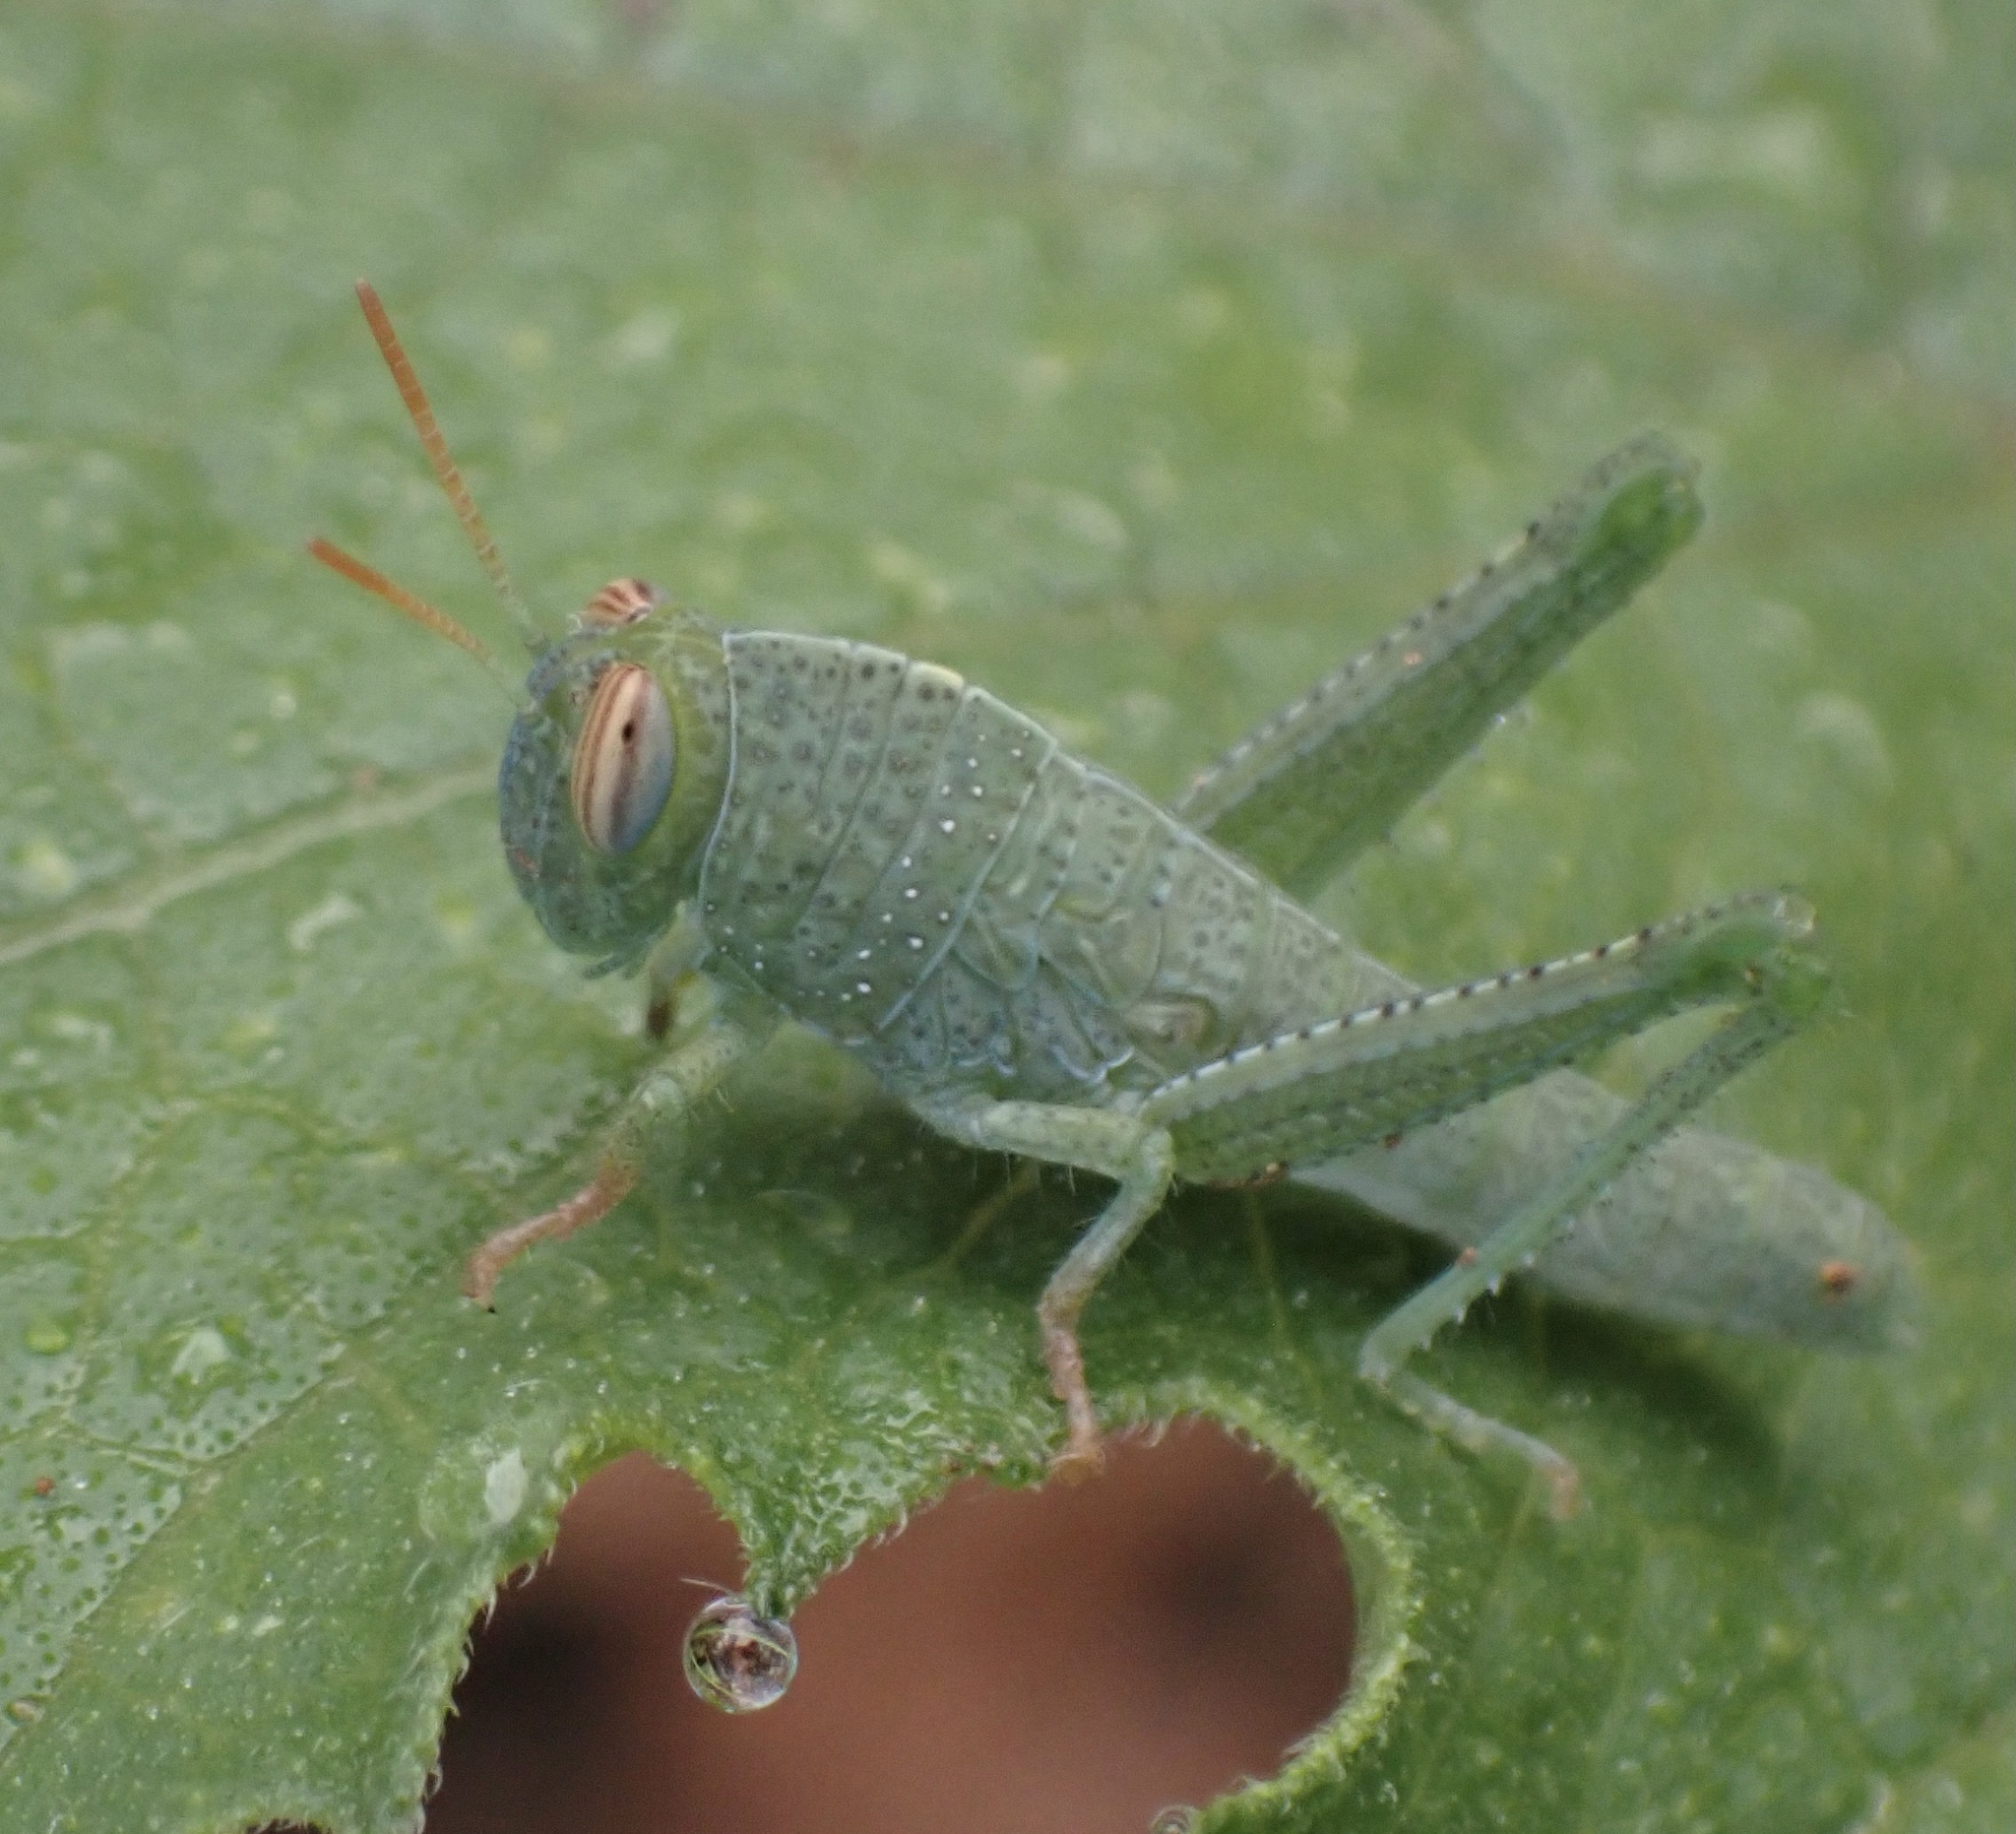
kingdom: Animalia
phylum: Arthropoda
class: Insecta
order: Orthoptera
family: Acrididae
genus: Anacridium
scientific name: Anacridium aegyptium
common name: Egyptian grasshopper
